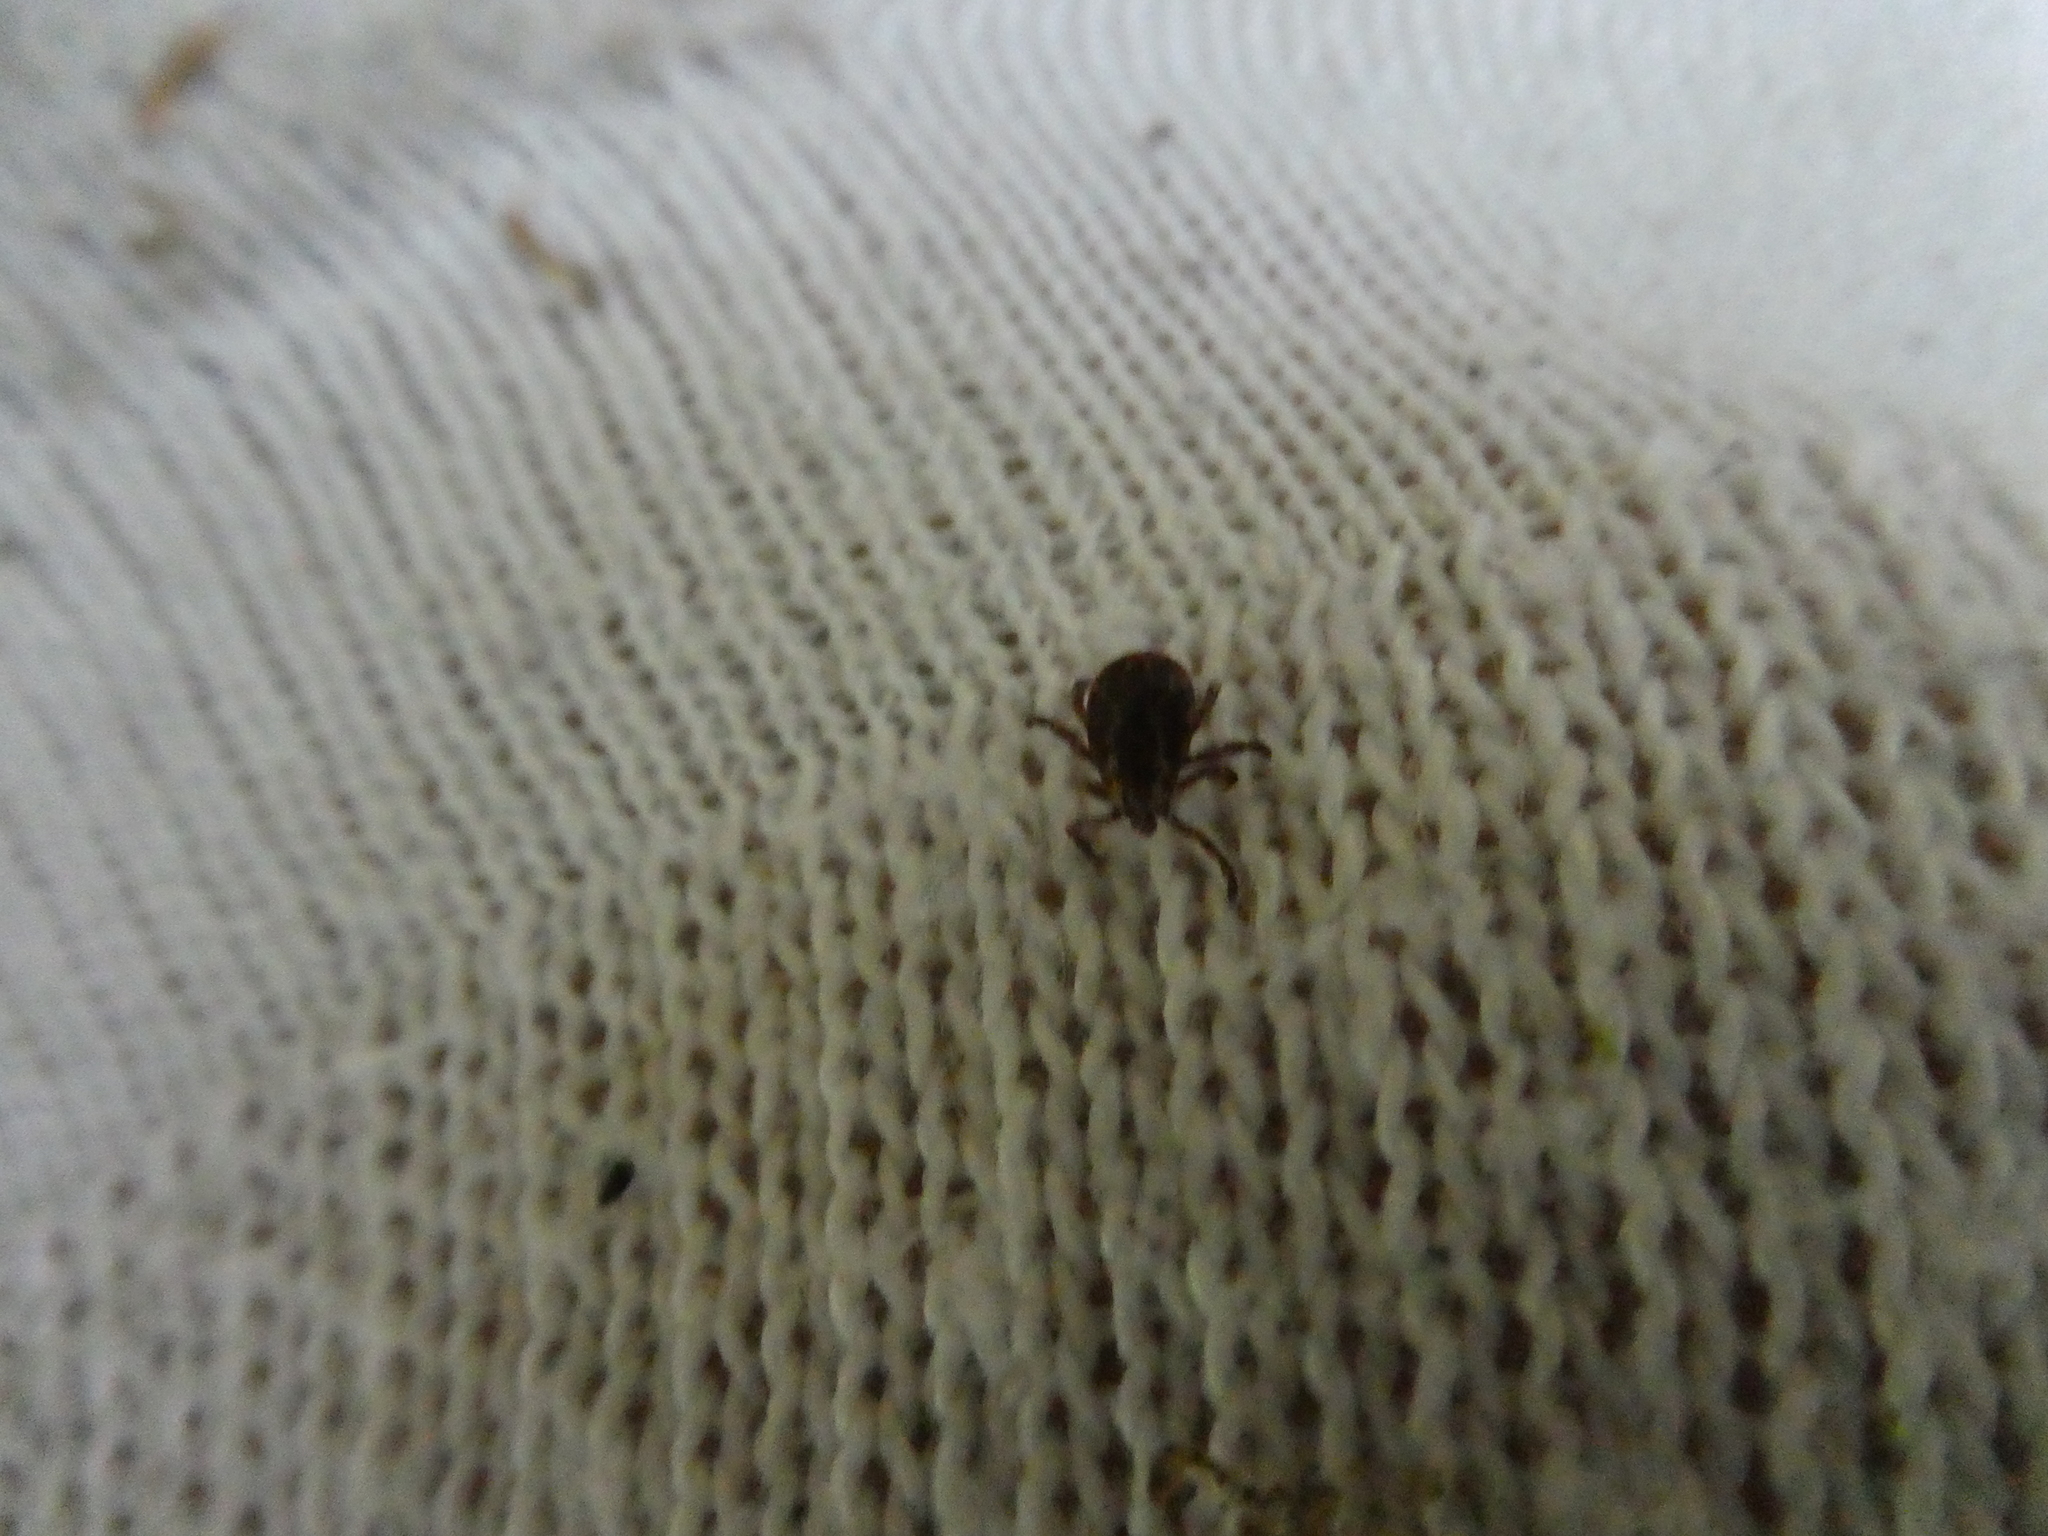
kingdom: Animalia
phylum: Arthropoda
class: Arachnida
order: Ixodida
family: Ixodidae
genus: Dermacentor
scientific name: Dermacentor variabilis
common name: American dog tick
